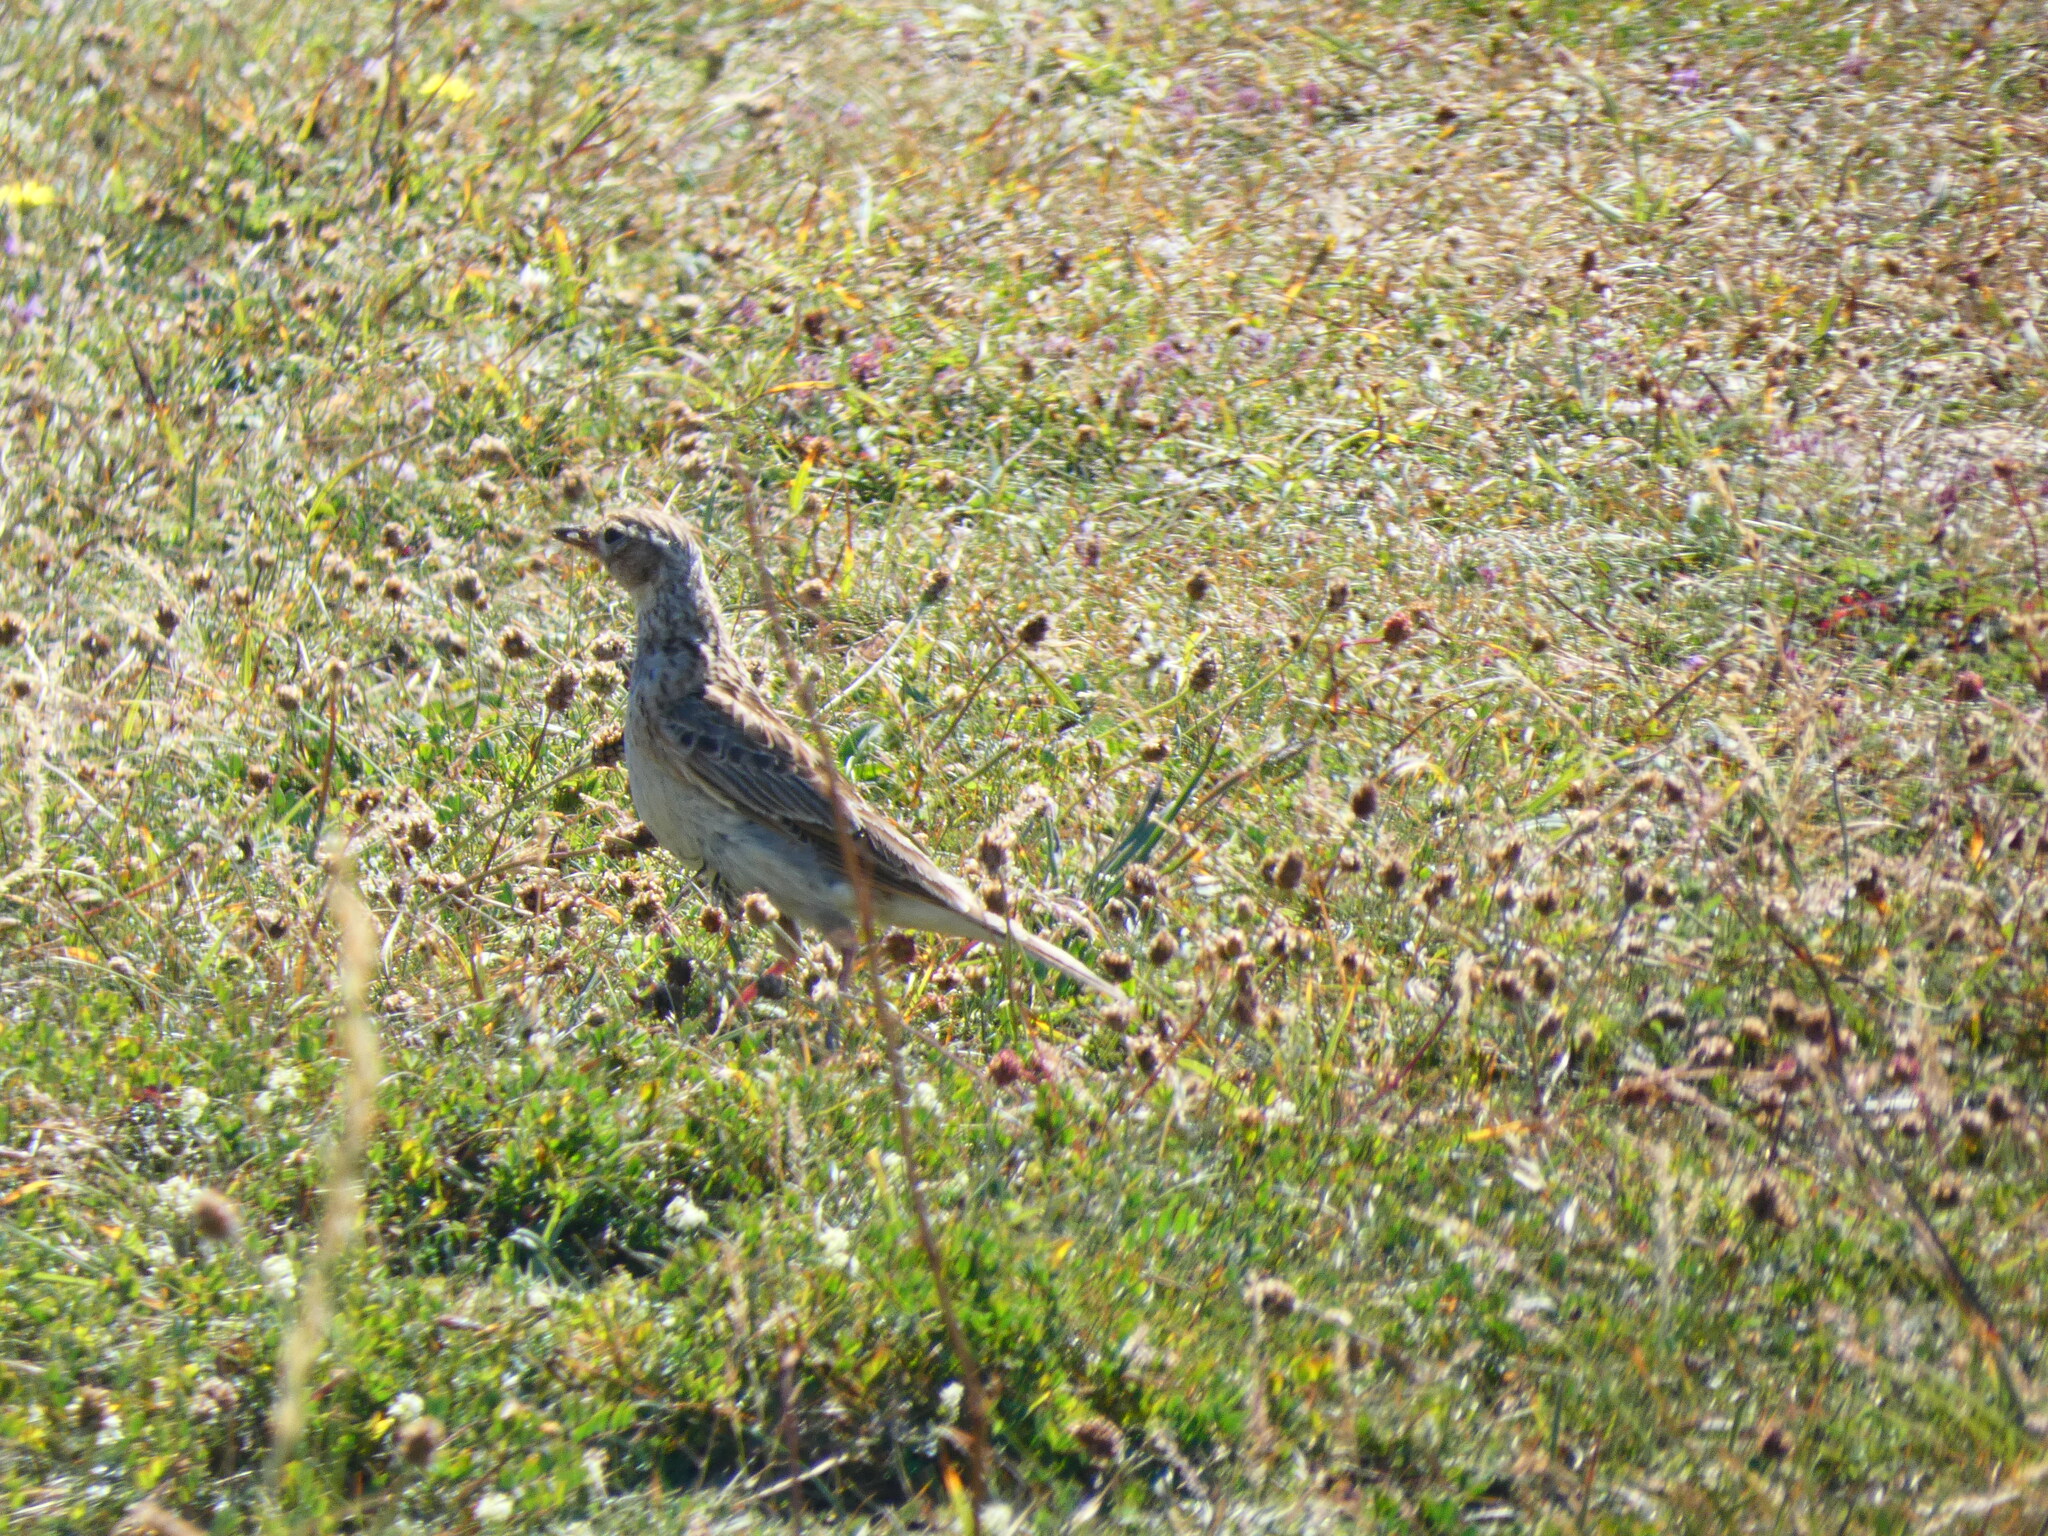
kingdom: Animalia
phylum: Chordata
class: Aves
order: Passeriformes
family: Alaudidae
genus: Alauda
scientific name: Alauda arvensis
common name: Eurasian skylark
